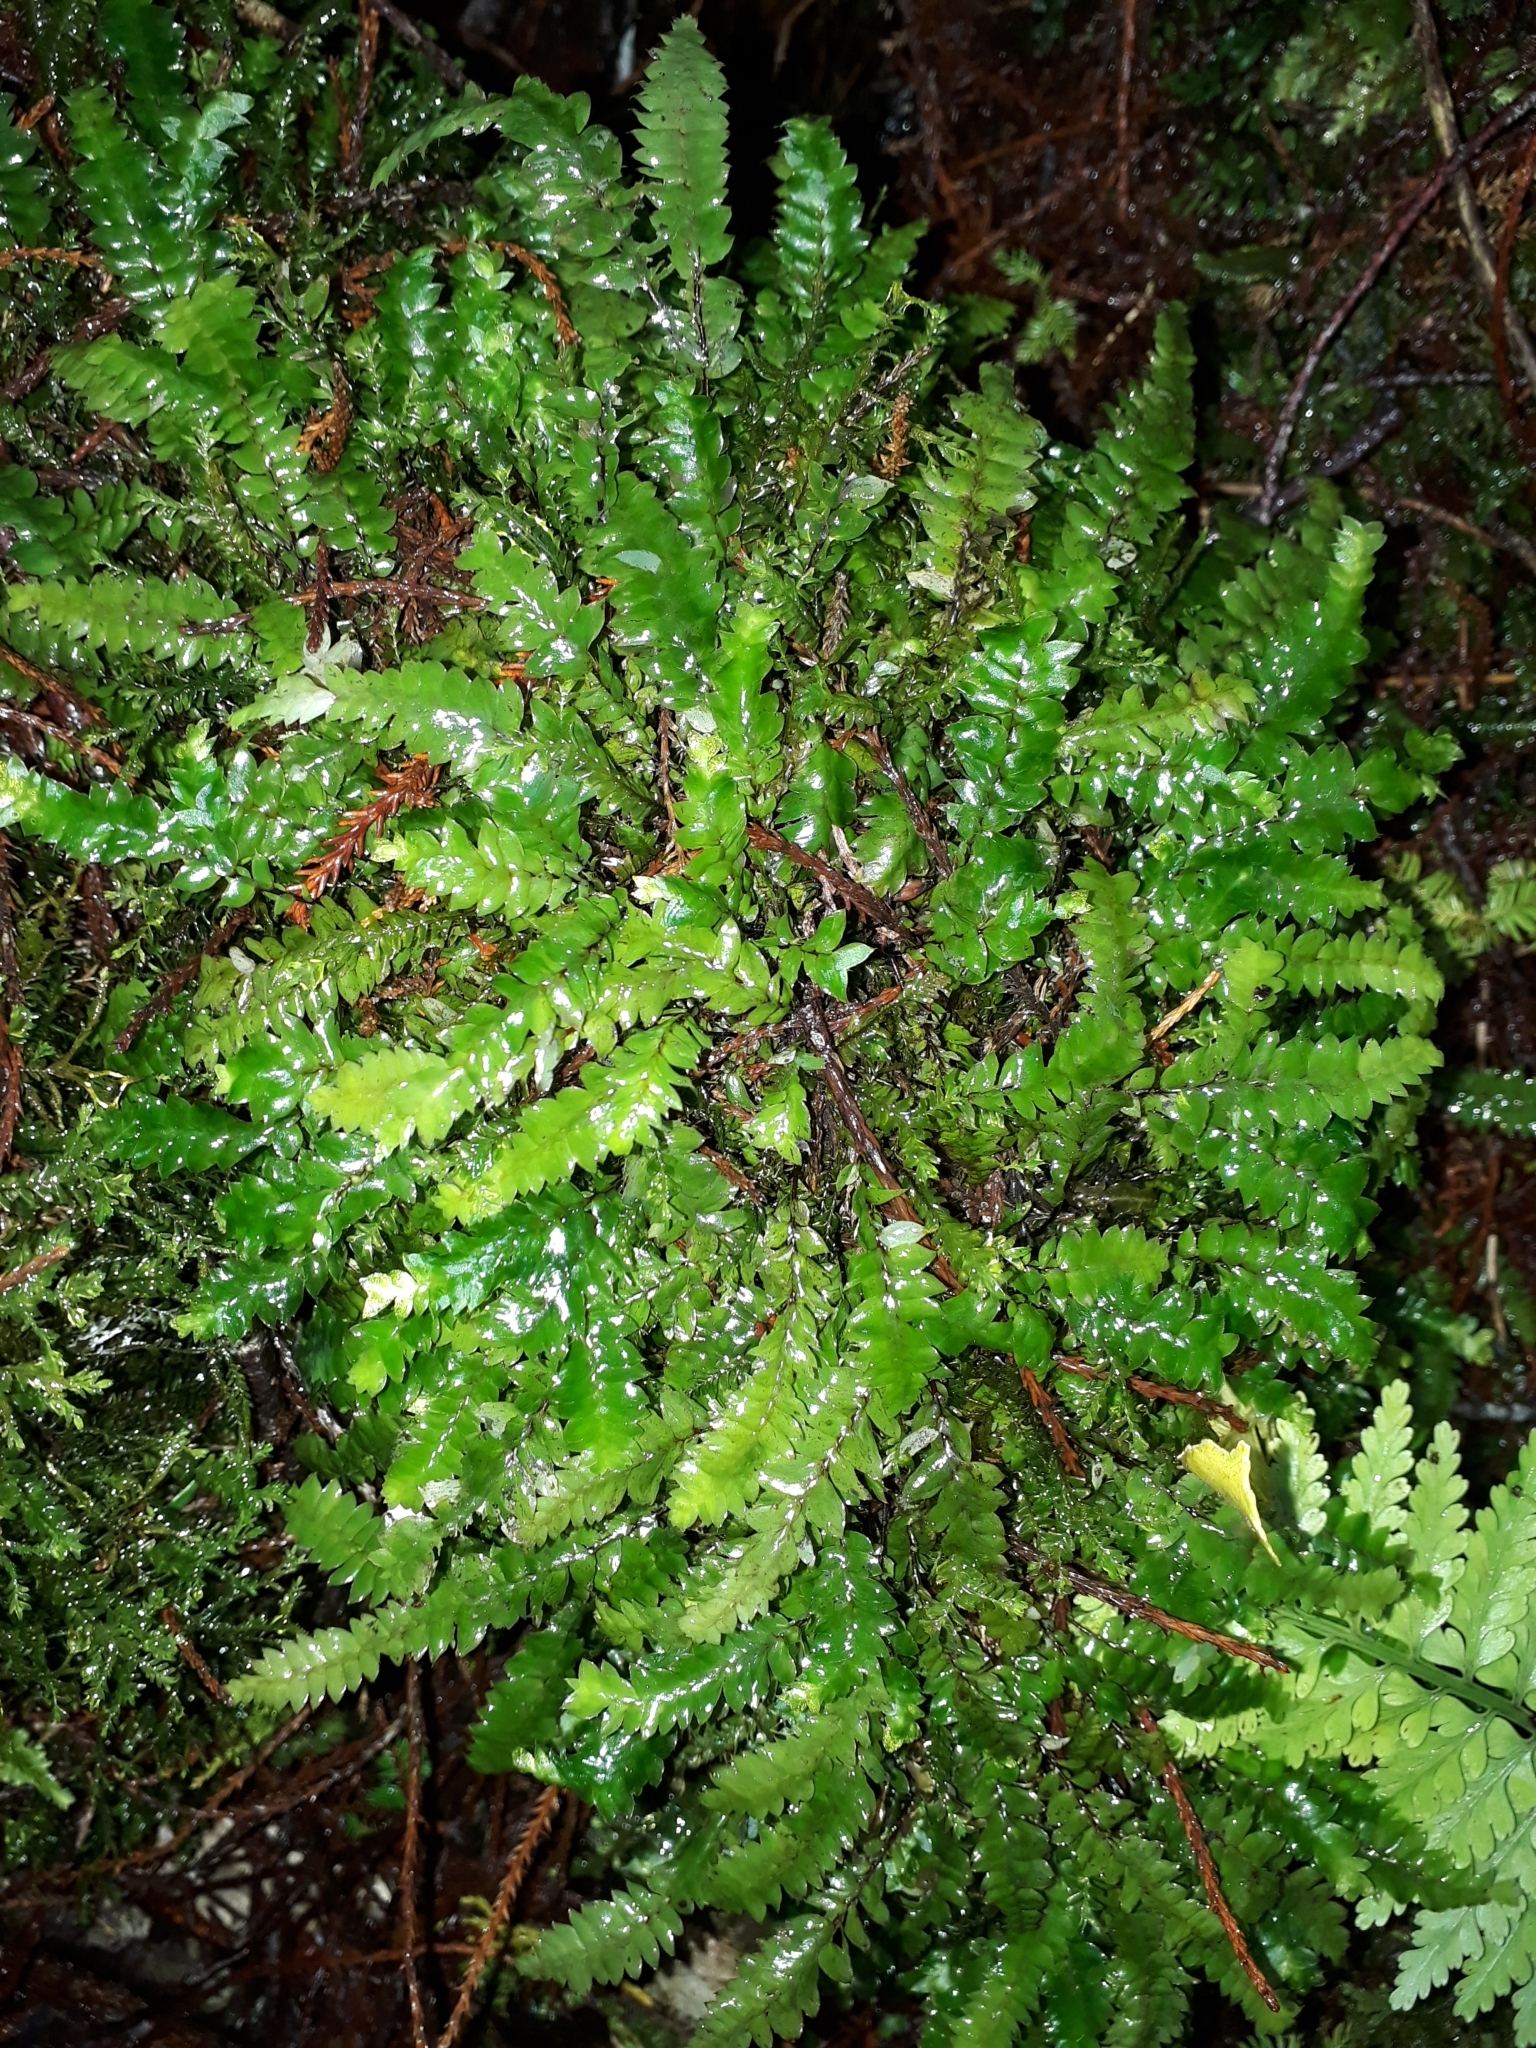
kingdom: Plantae
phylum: Bryophyta
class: Bryopsida
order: Hypopterygiales
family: Hypopterygiaceae
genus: Cyathophorum
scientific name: Cyathophorum bulbosum
